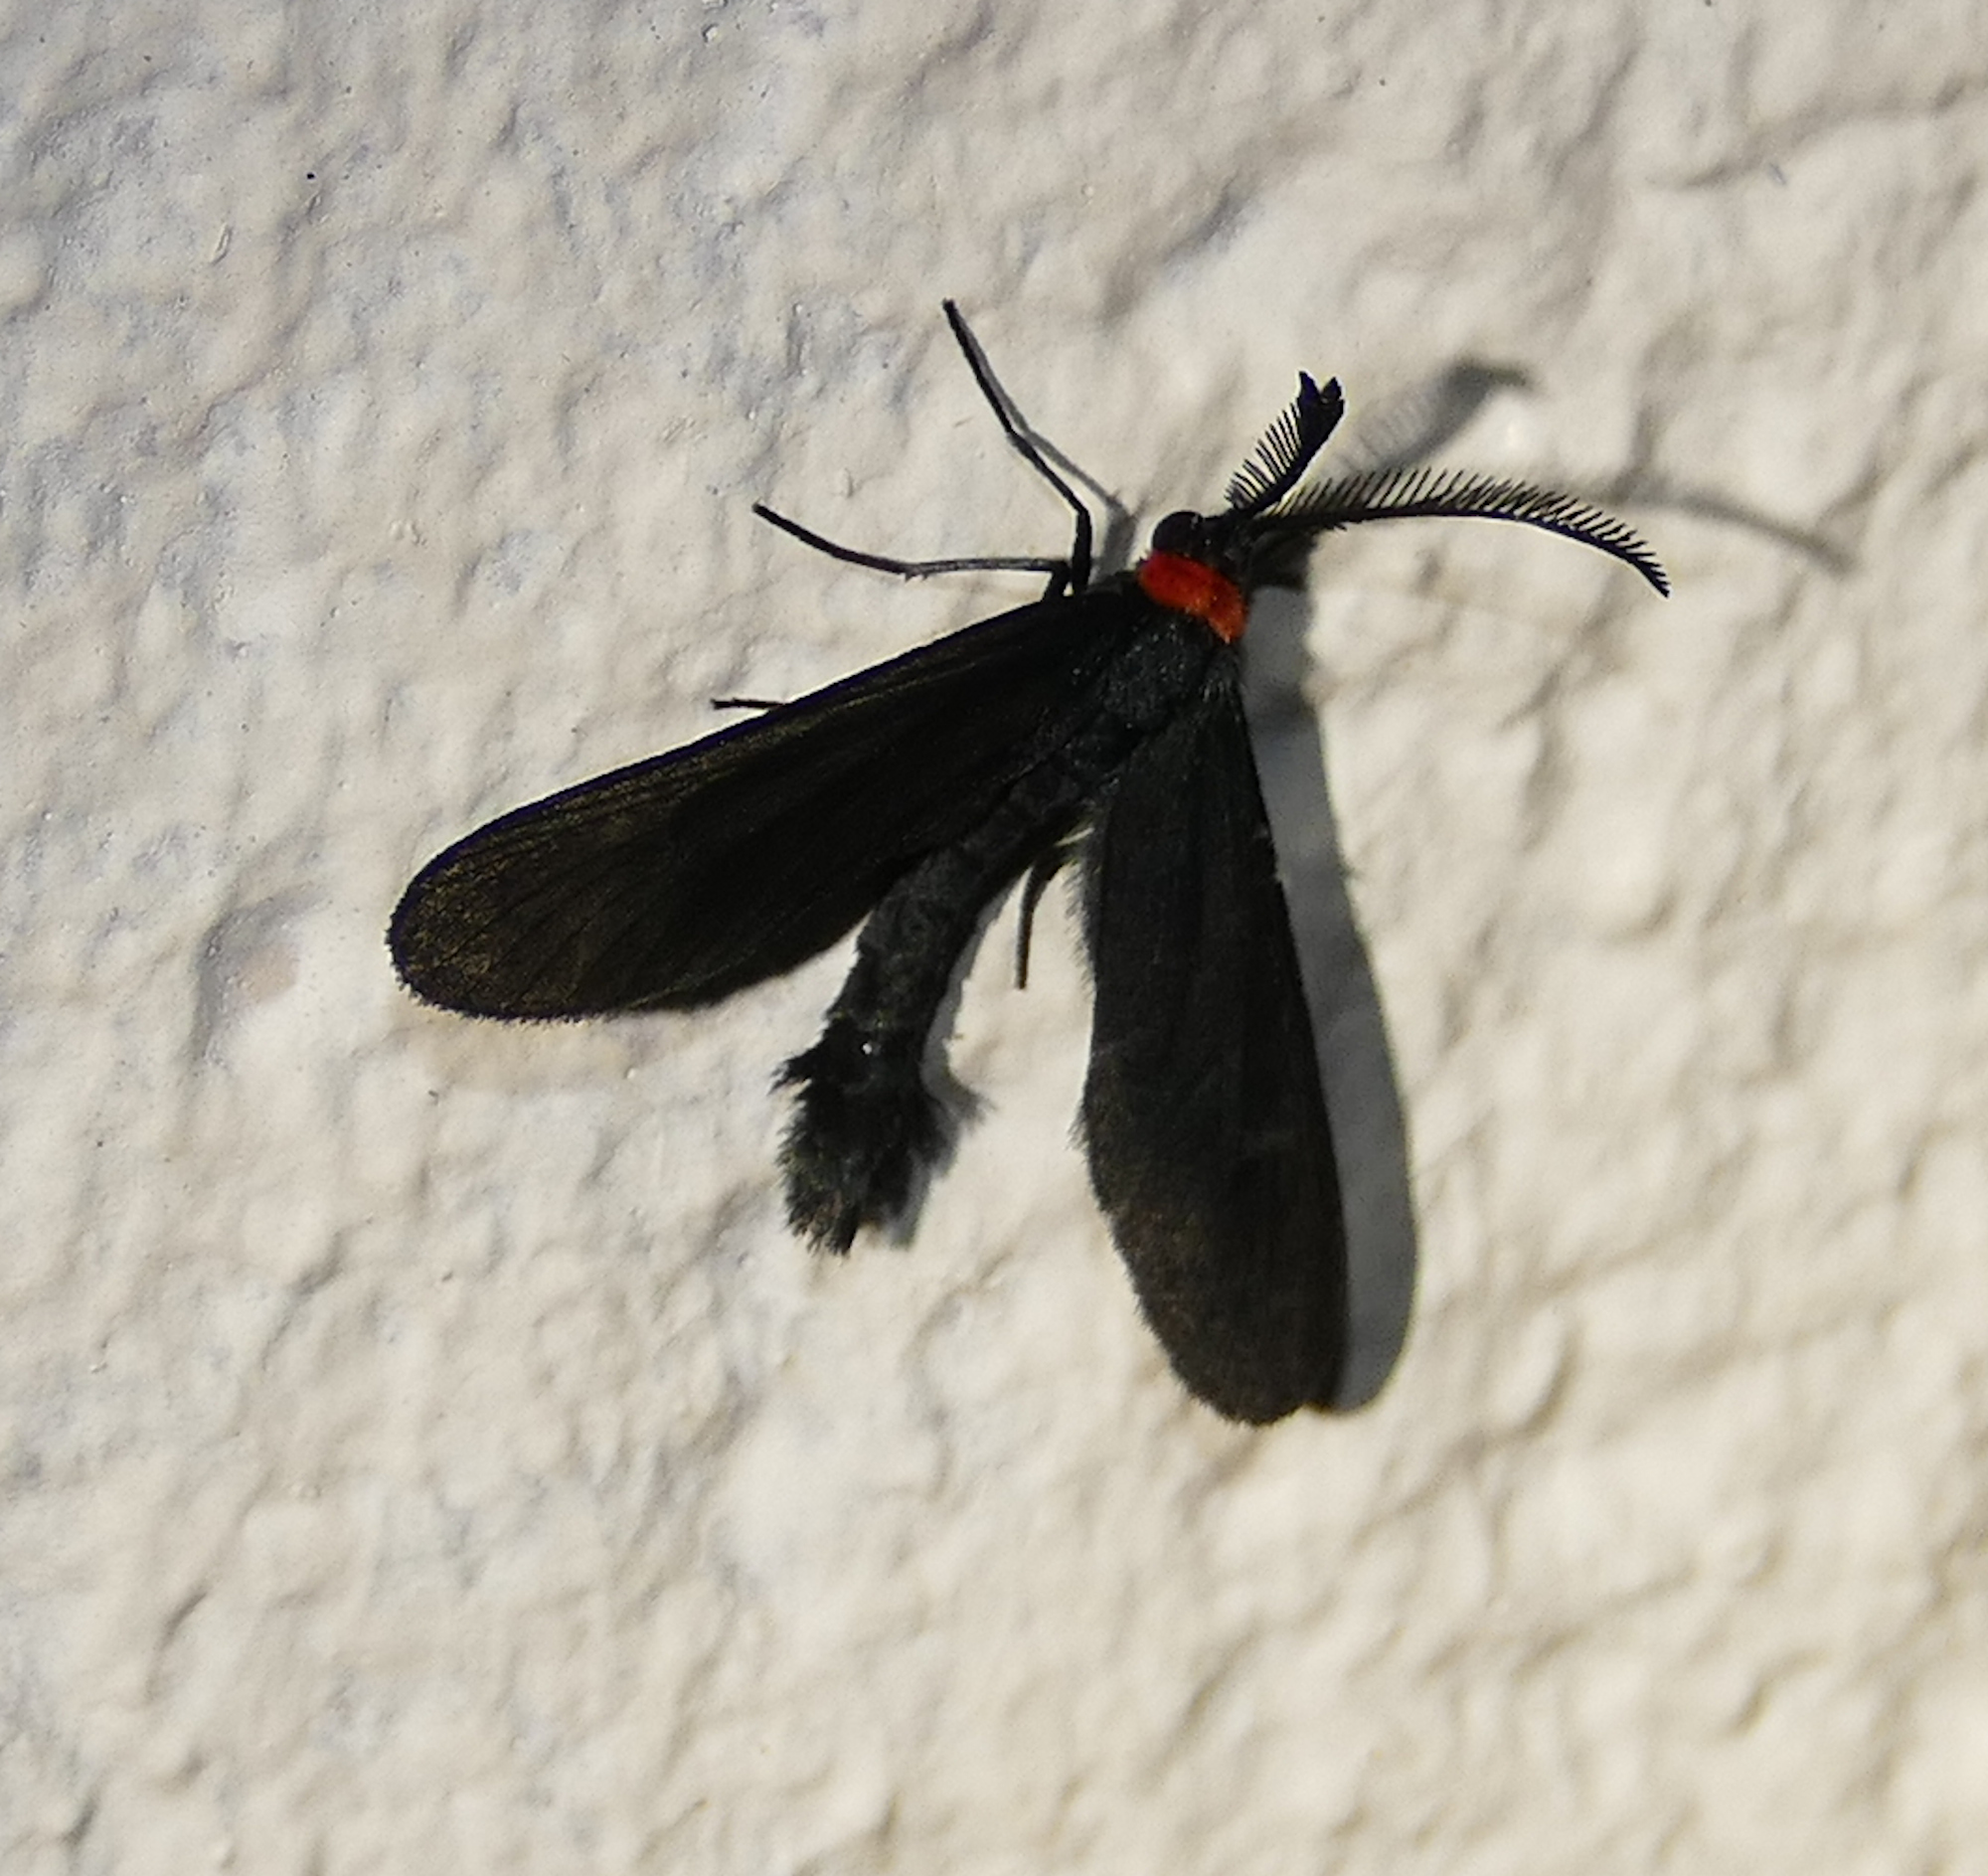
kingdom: Animalia
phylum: Arthropoda
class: Insecta
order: Lepidoptera
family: Zygaenidae
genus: Harrisina
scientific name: Harrisina americana
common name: Grapeleaf skeletonizer moth
